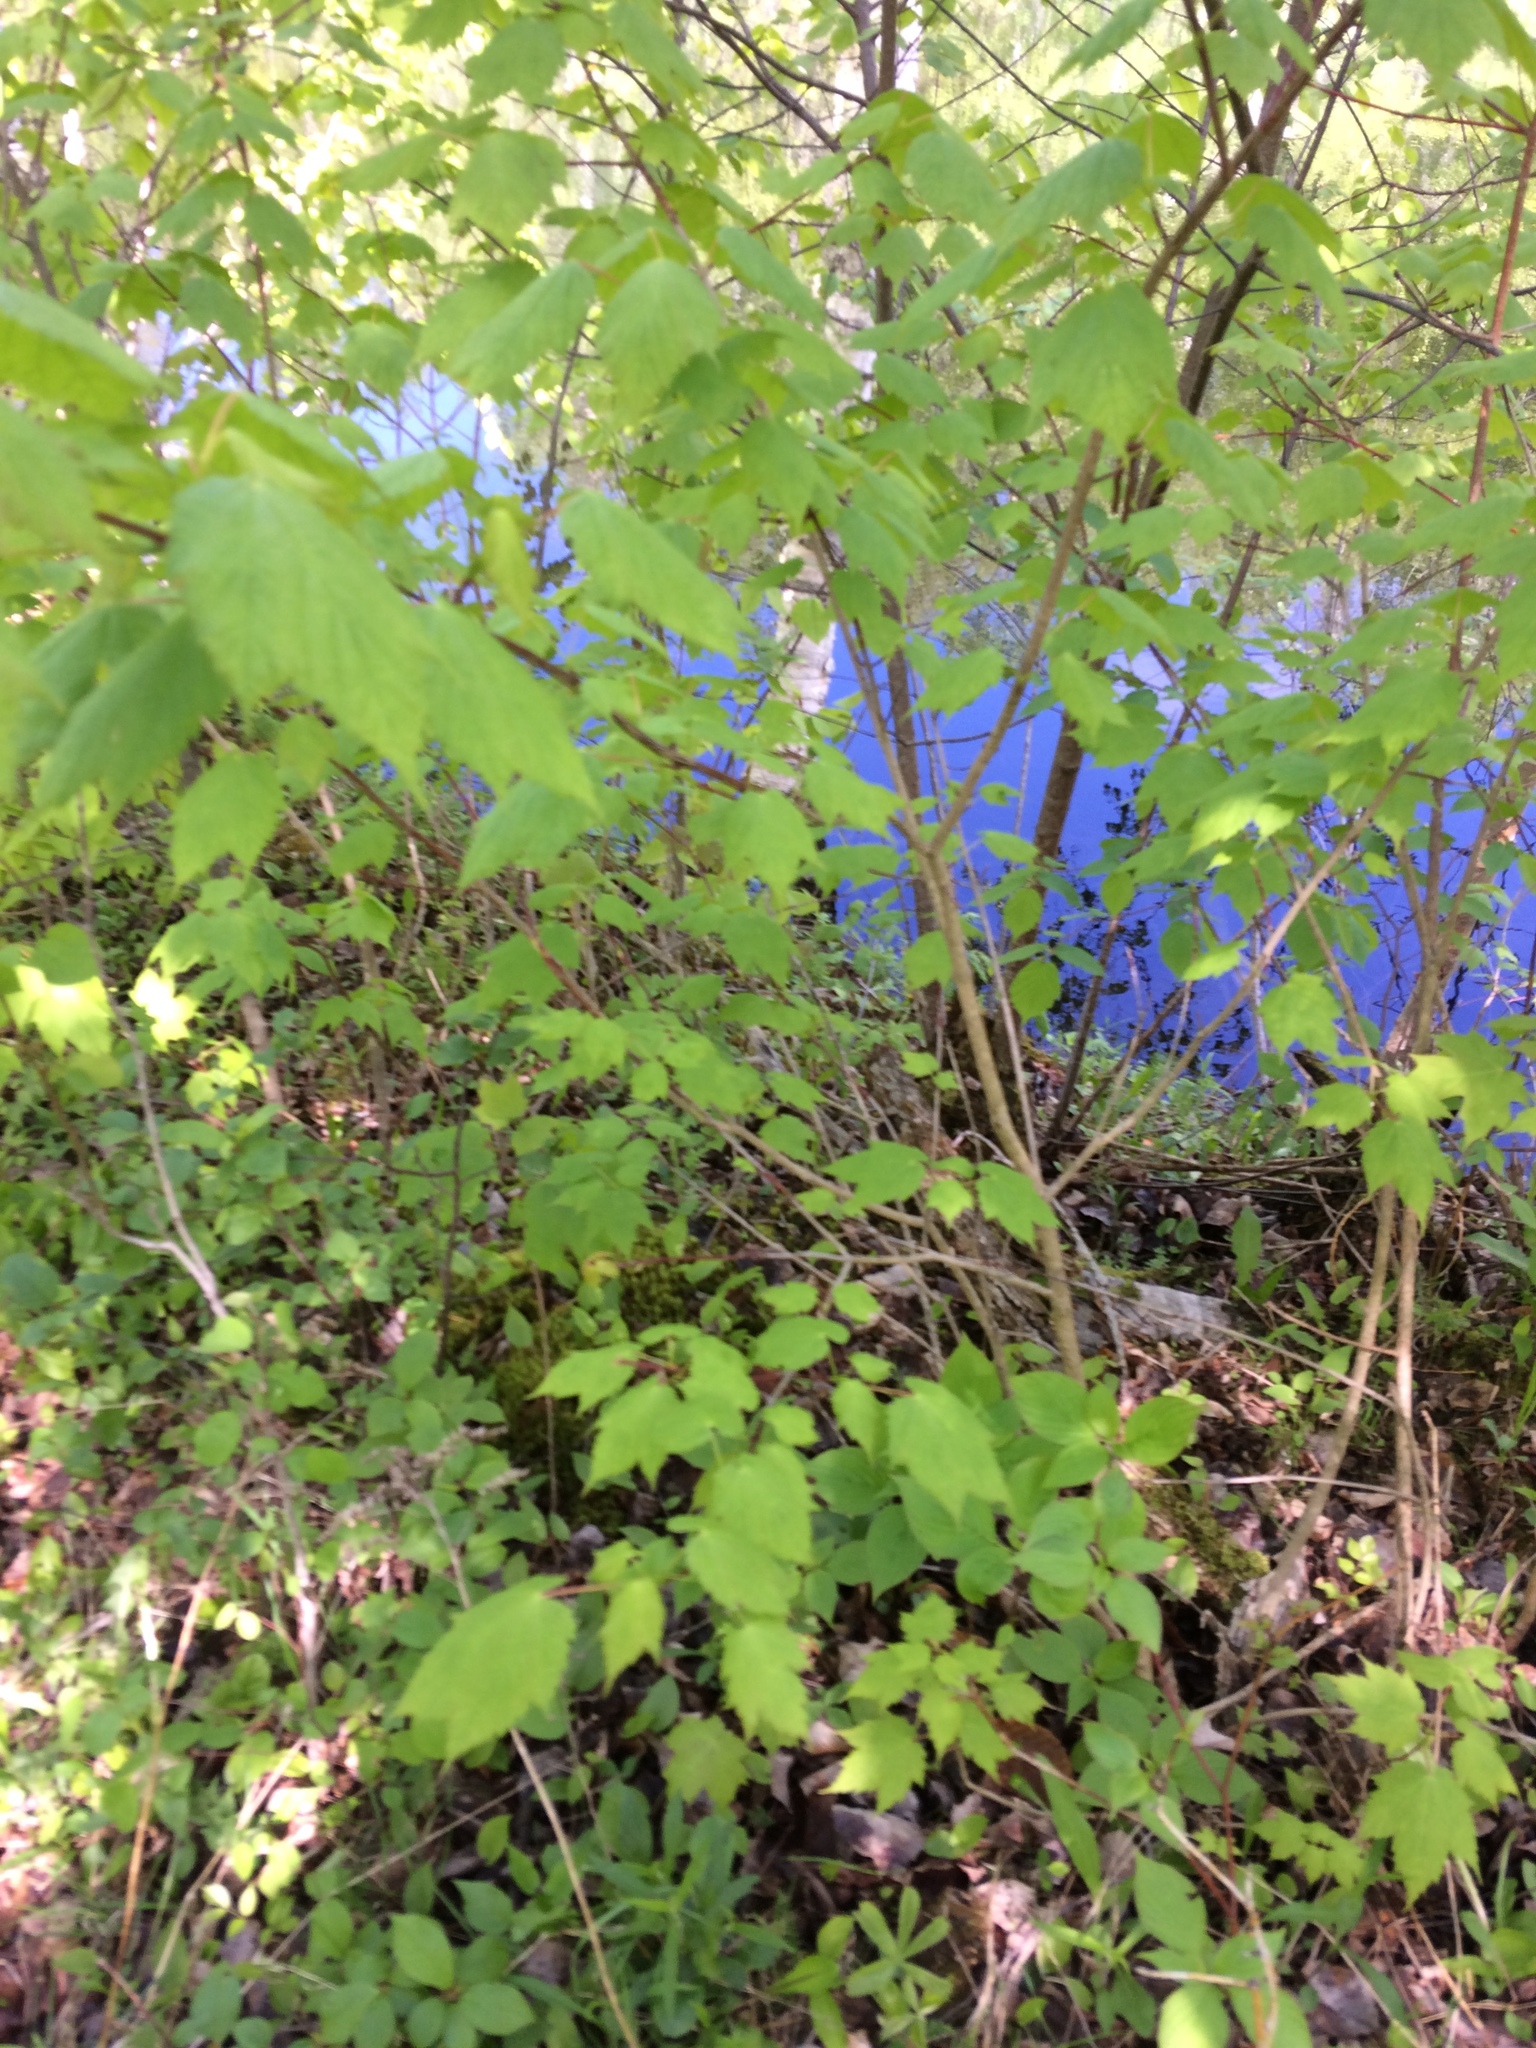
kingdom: Plantae
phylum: Tracheophyta
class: Magnoliopsida
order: Sapindales
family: Sapindaceae
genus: Acer
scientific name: Acer spicatum
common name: Mountain maple
